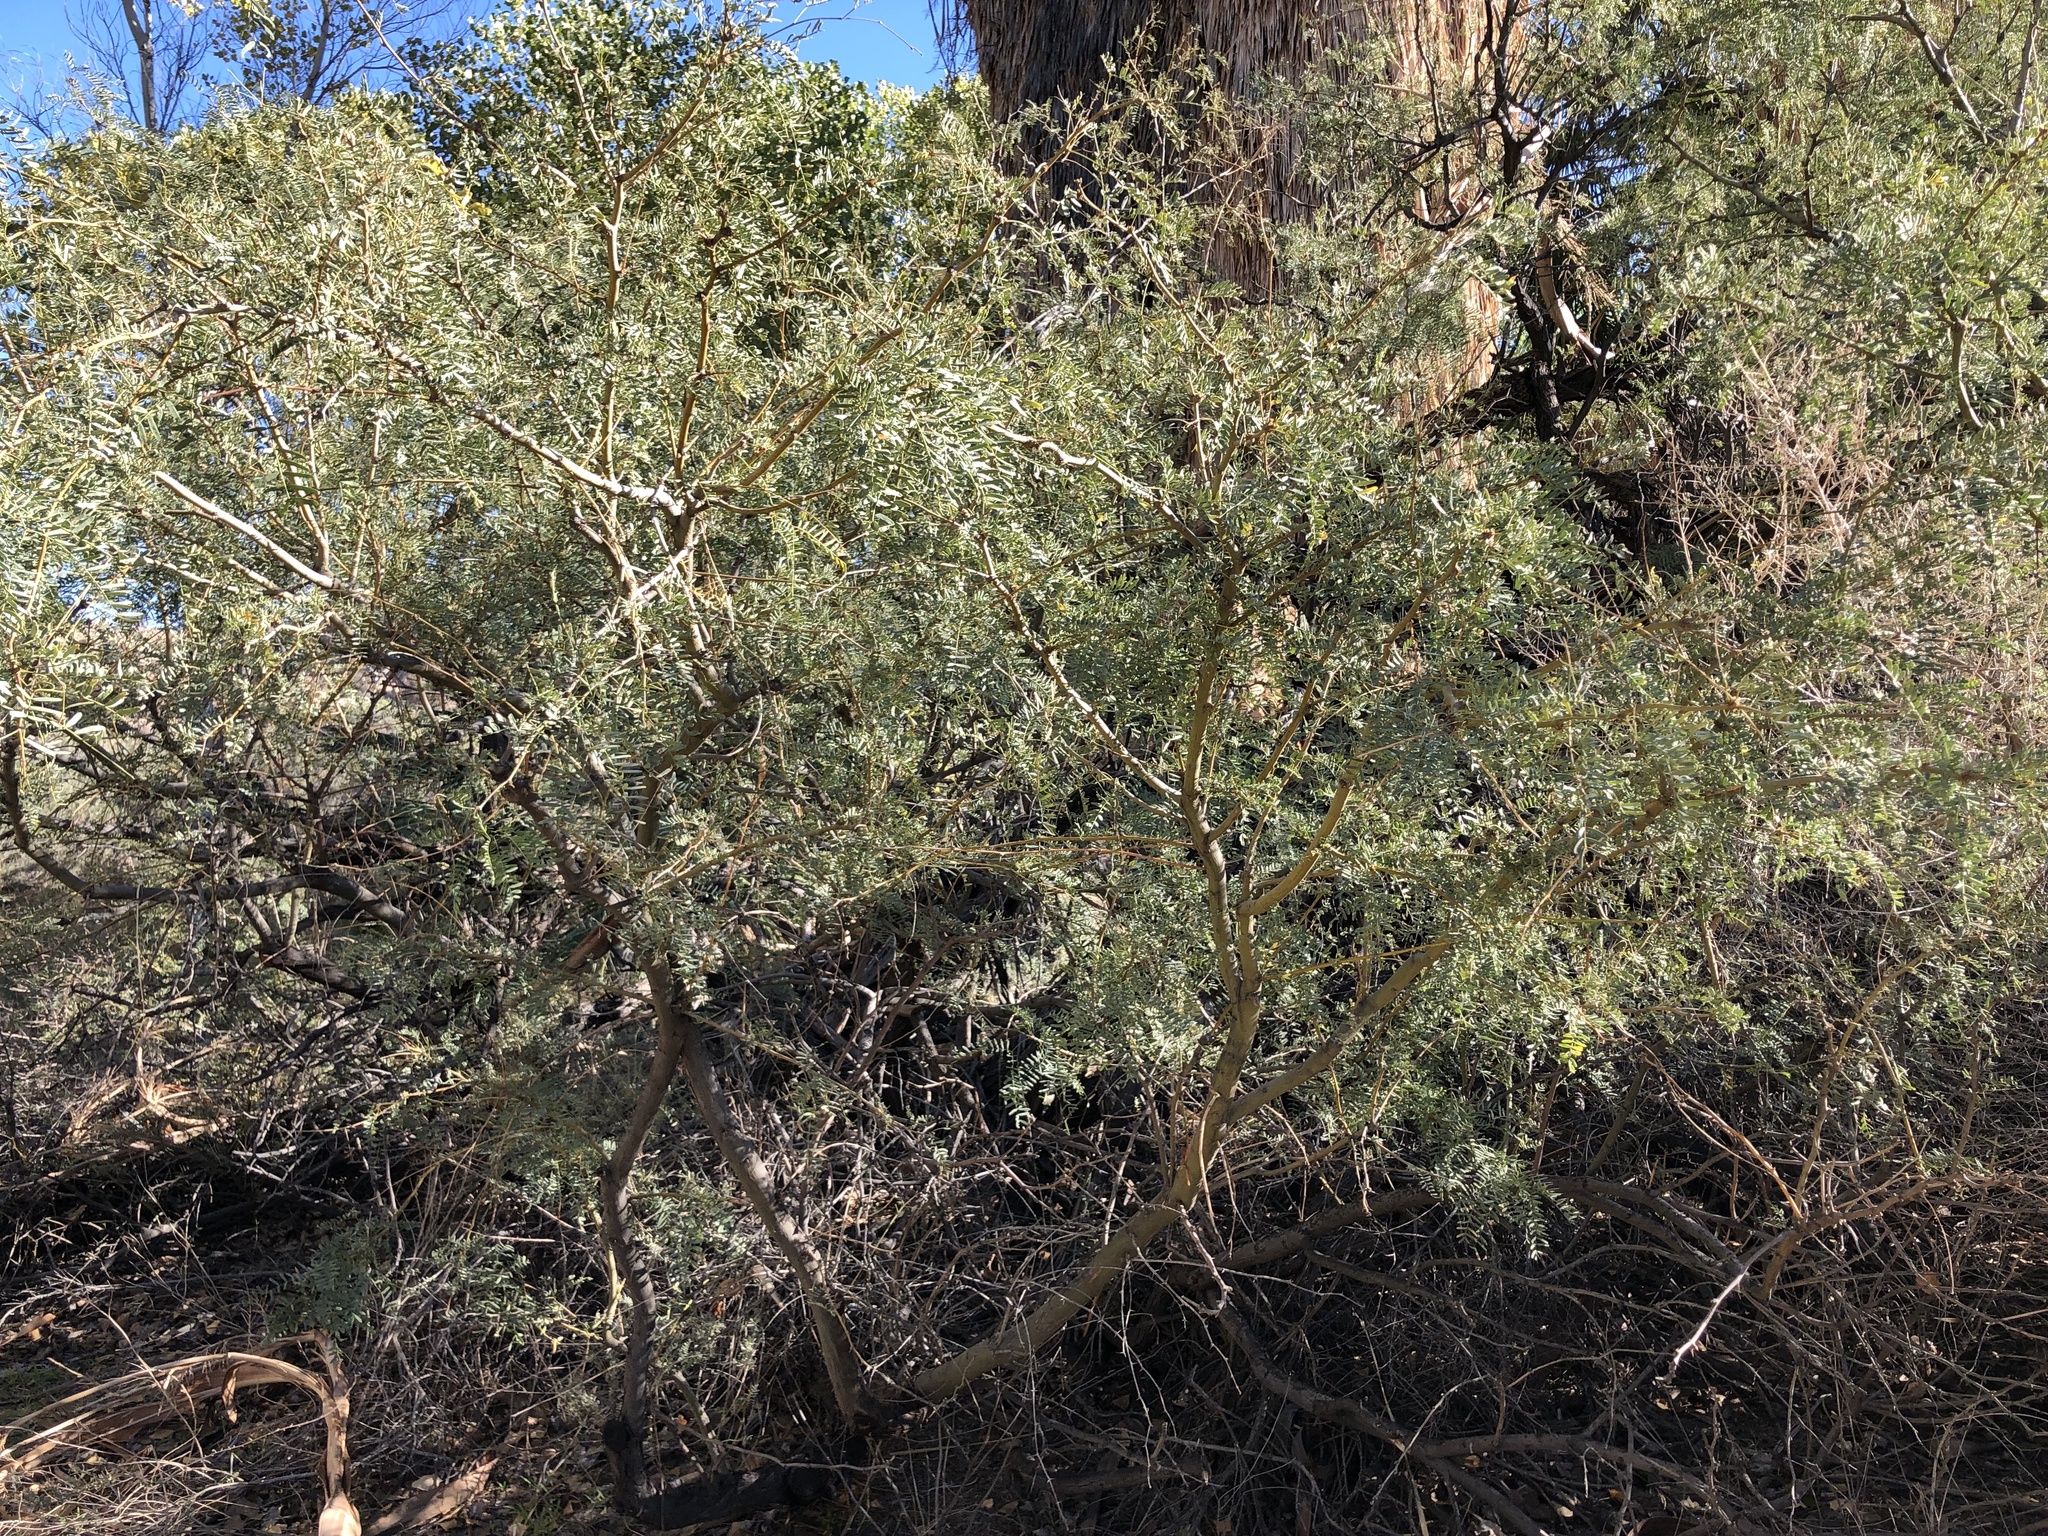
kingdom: Plantae
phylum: Tracheophyta
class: Magnoliopsida
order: Fabales
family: Fabaceae
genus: Prosopis
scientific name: Prosopis pubescens
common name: Screw-bean
